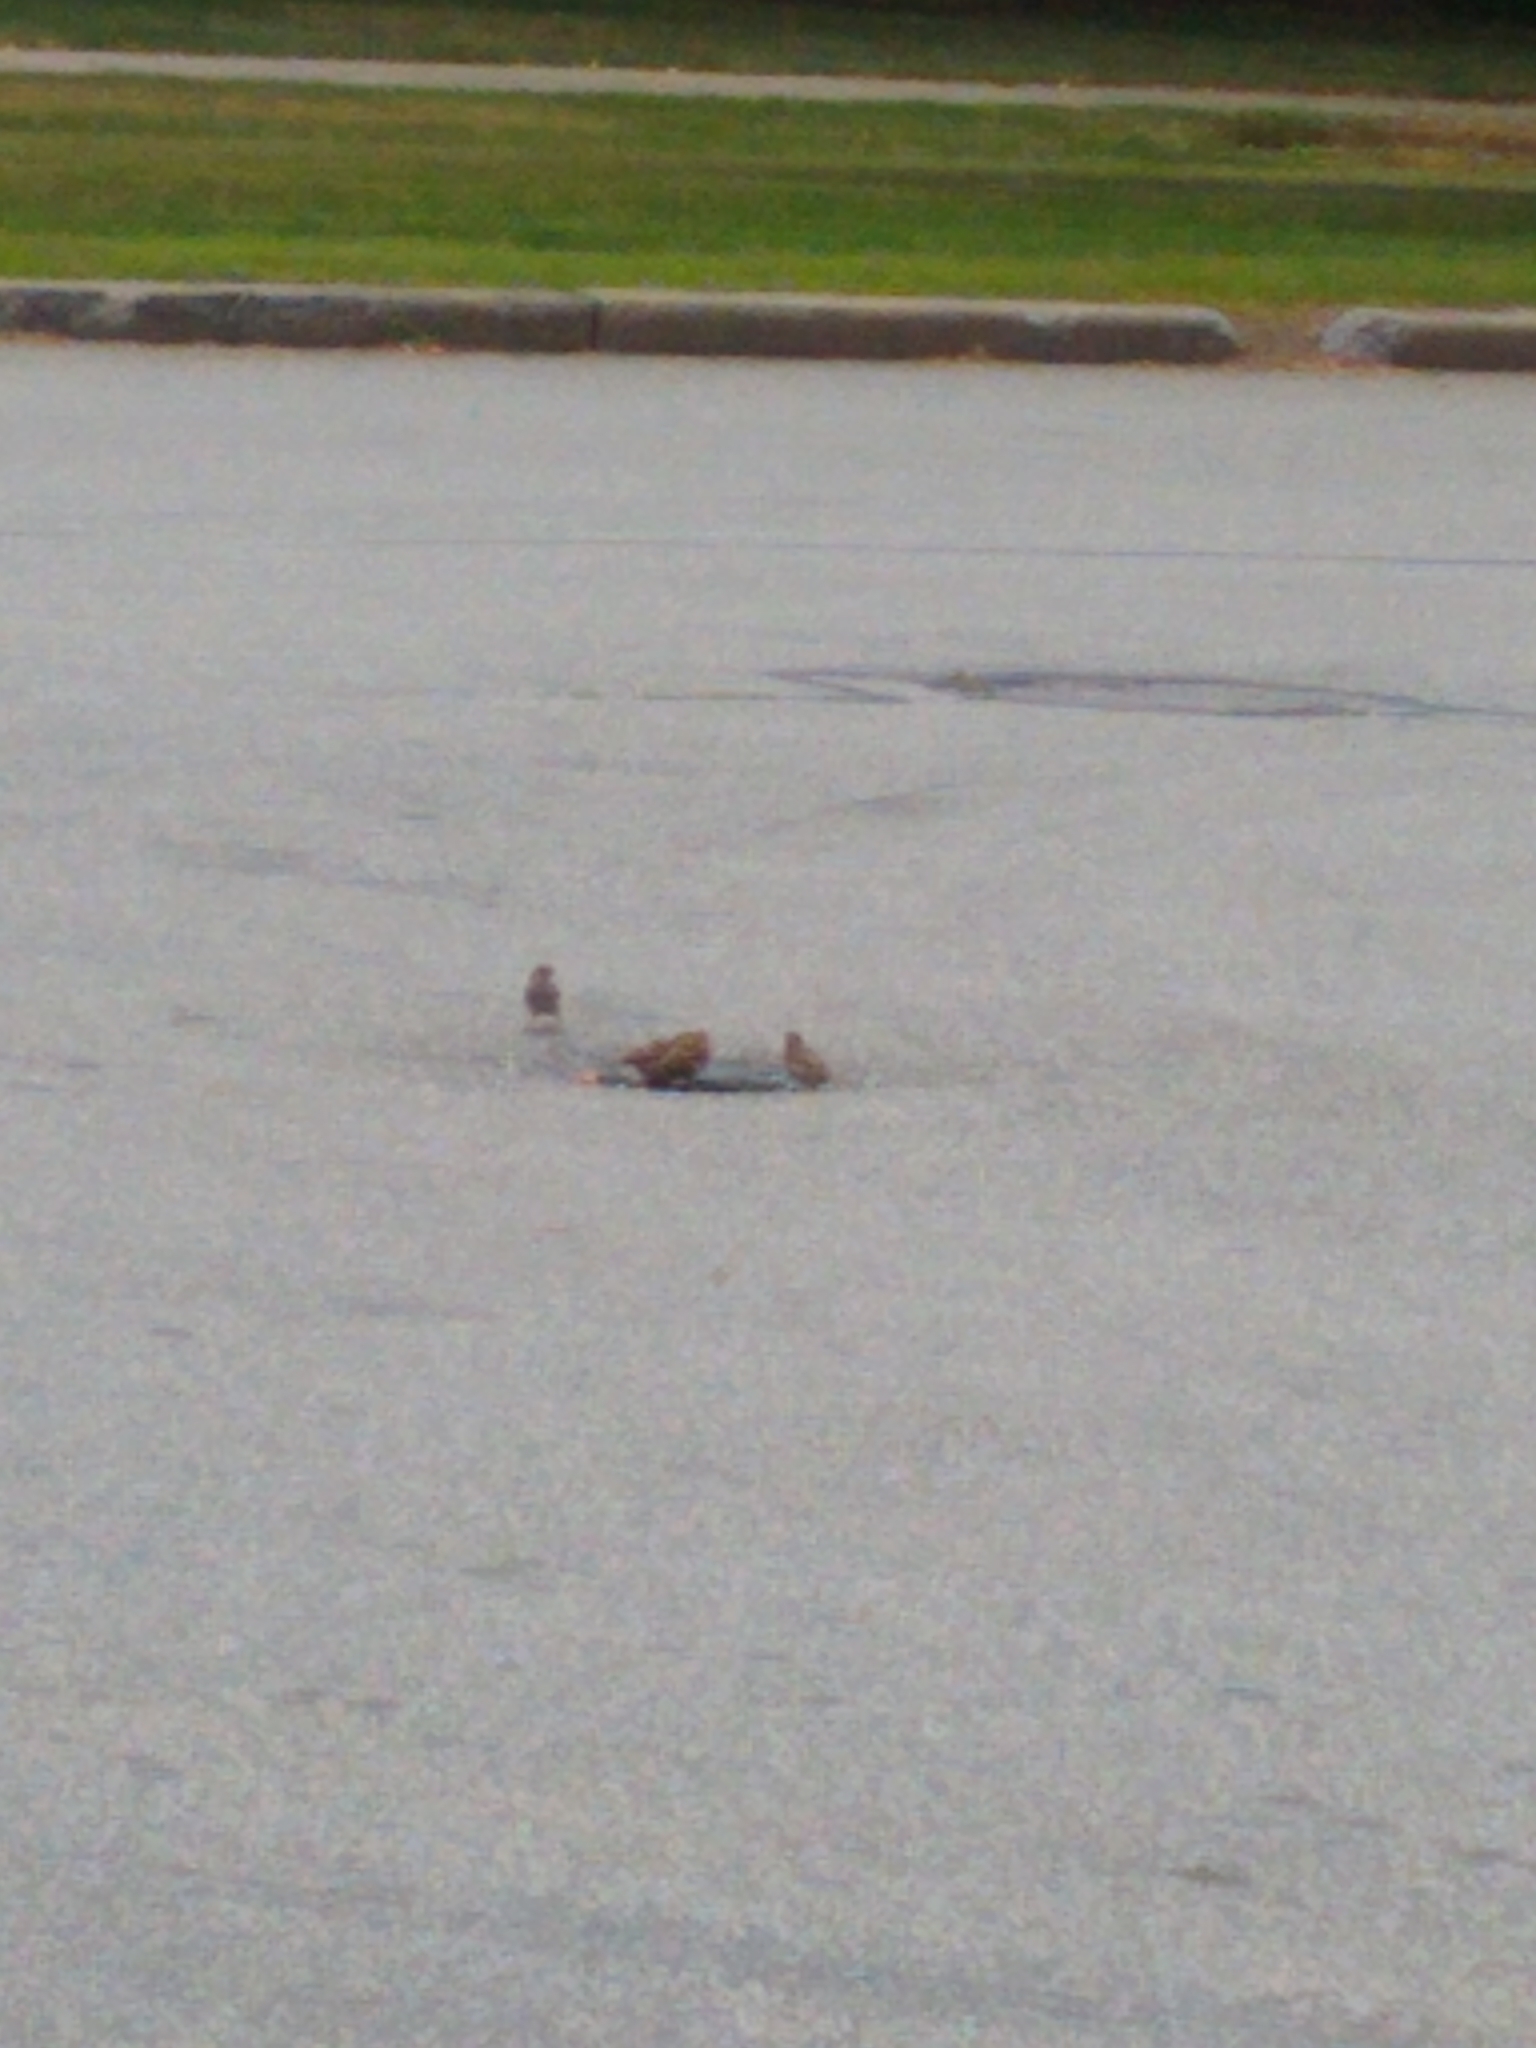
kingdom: Animalia
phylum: Chordata
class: Aves
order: Passeriformes
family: Passeridae
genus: Passer
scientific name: Passer domesticus
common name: House sparrow
